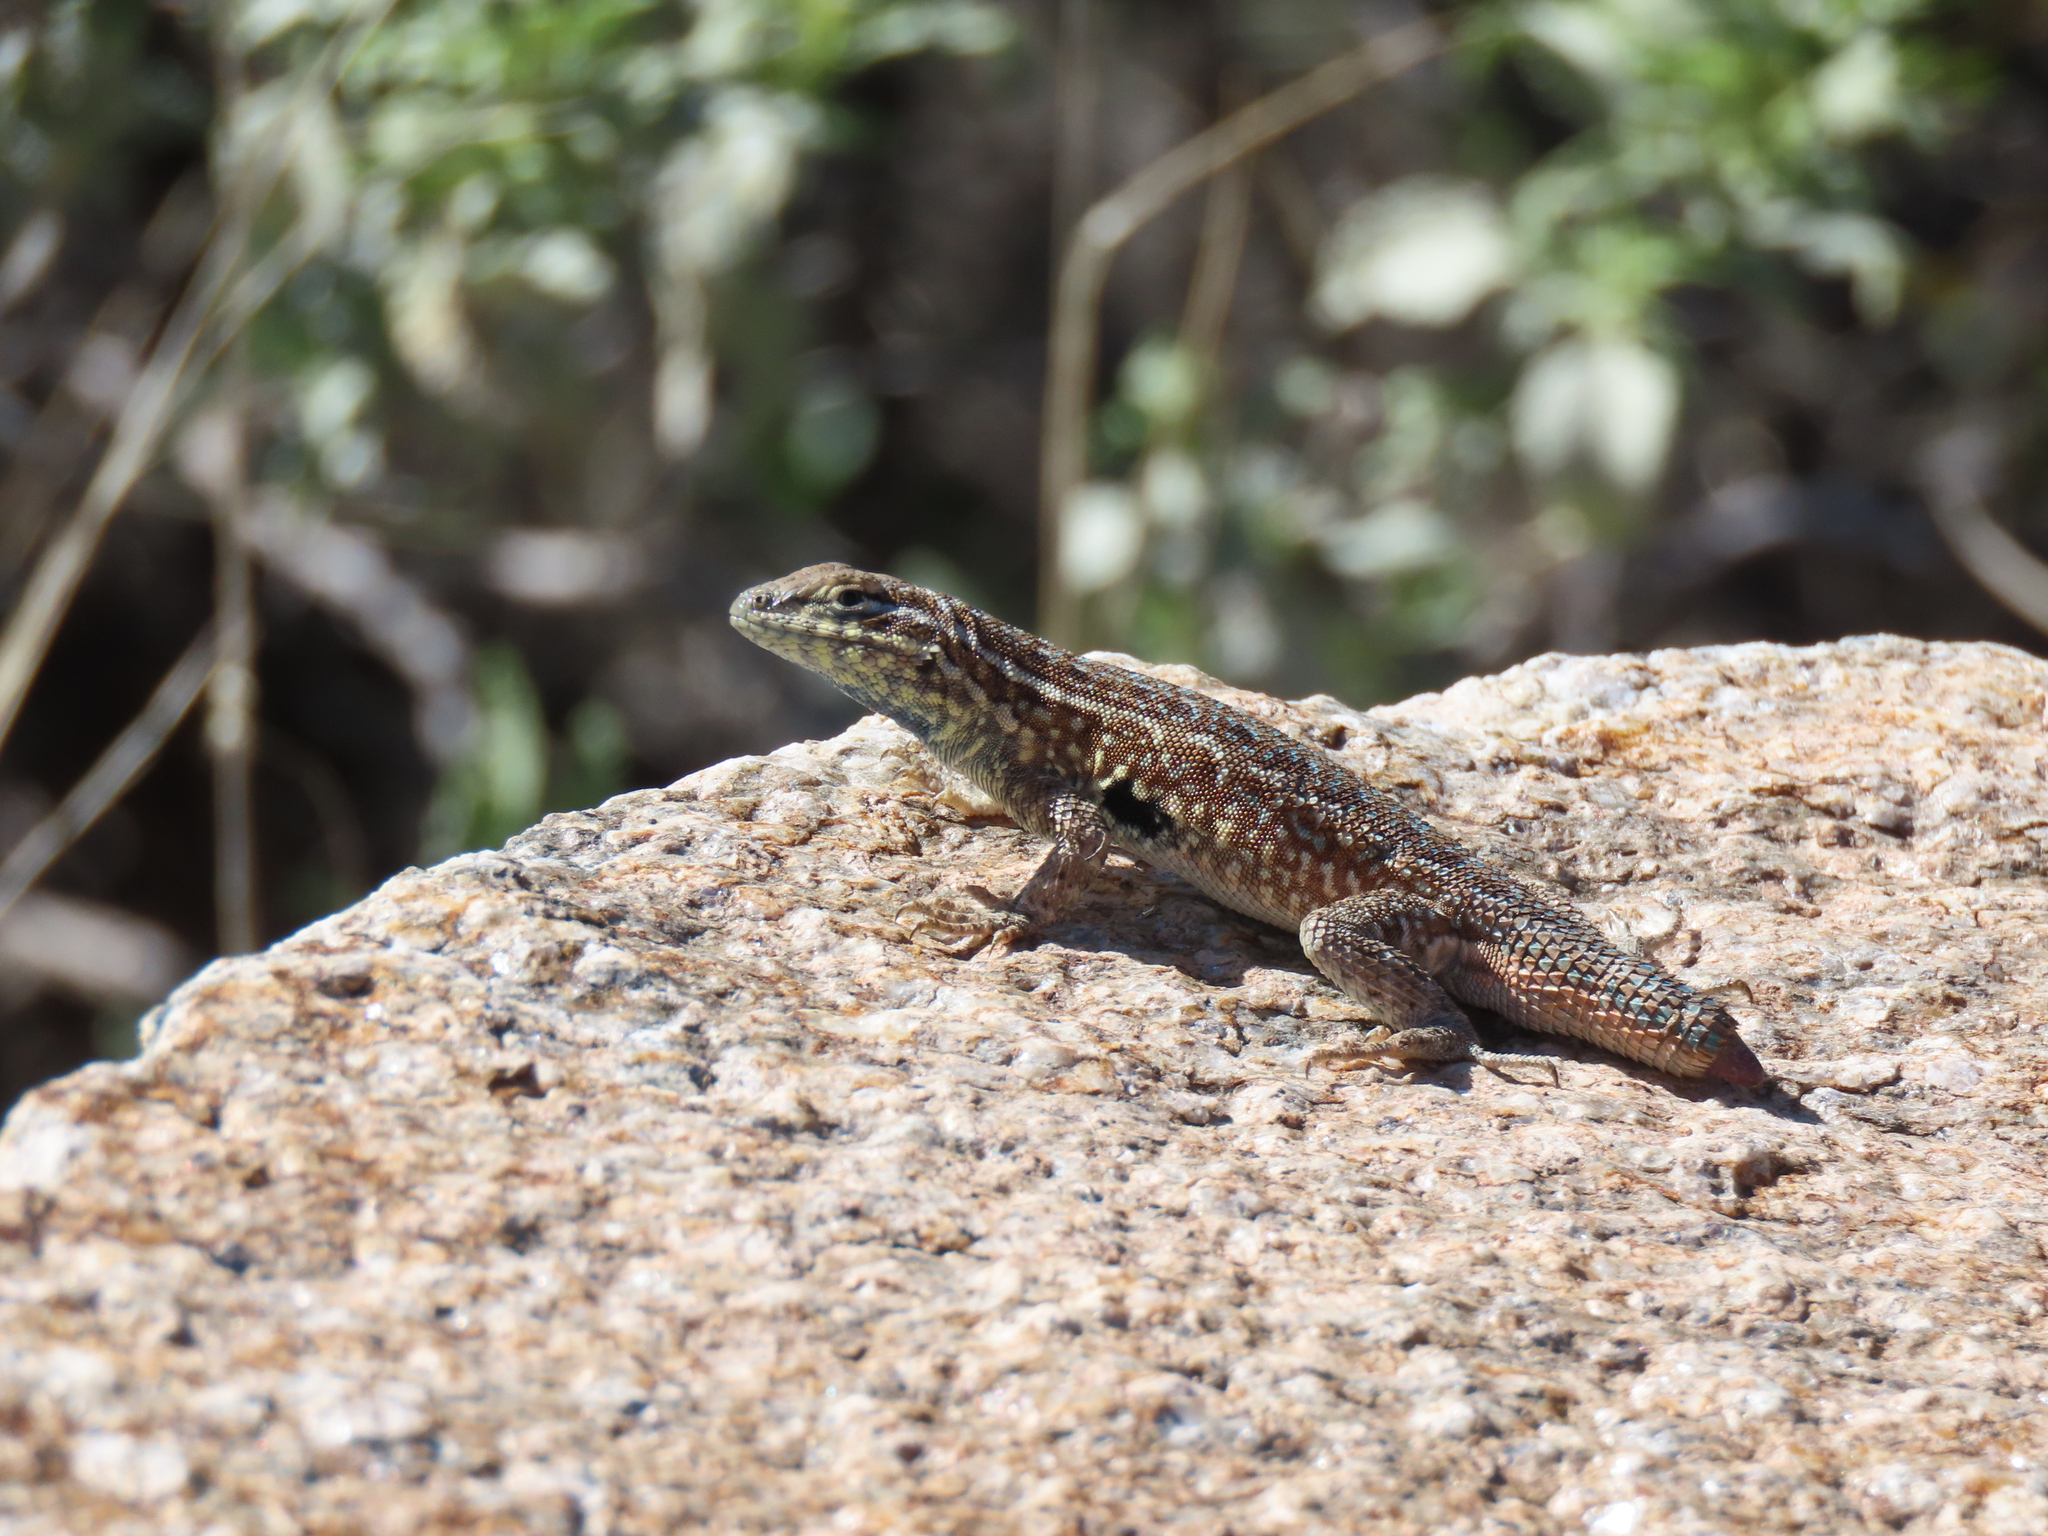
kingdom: Animalia
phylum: Chordata
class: Squamata
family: Phrynosomatidae
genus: Uta
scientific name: Uta stansburiana
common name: Side-blotched lizard
